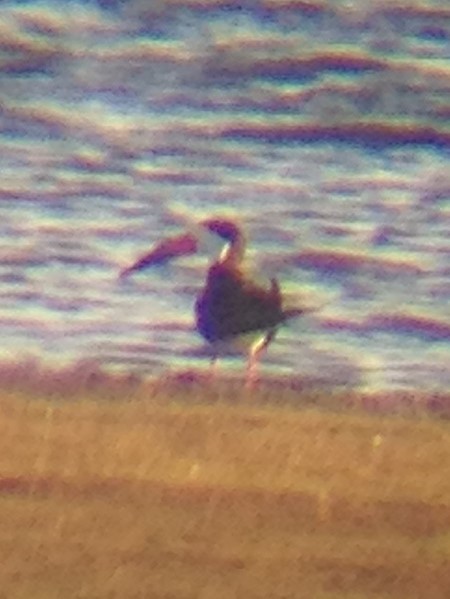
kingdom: Animalia
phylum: Chordata
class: Aves
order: Charadriiformes
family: Laridae
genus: Rynchops
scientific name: Rynchops niger
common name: Black skimmer
